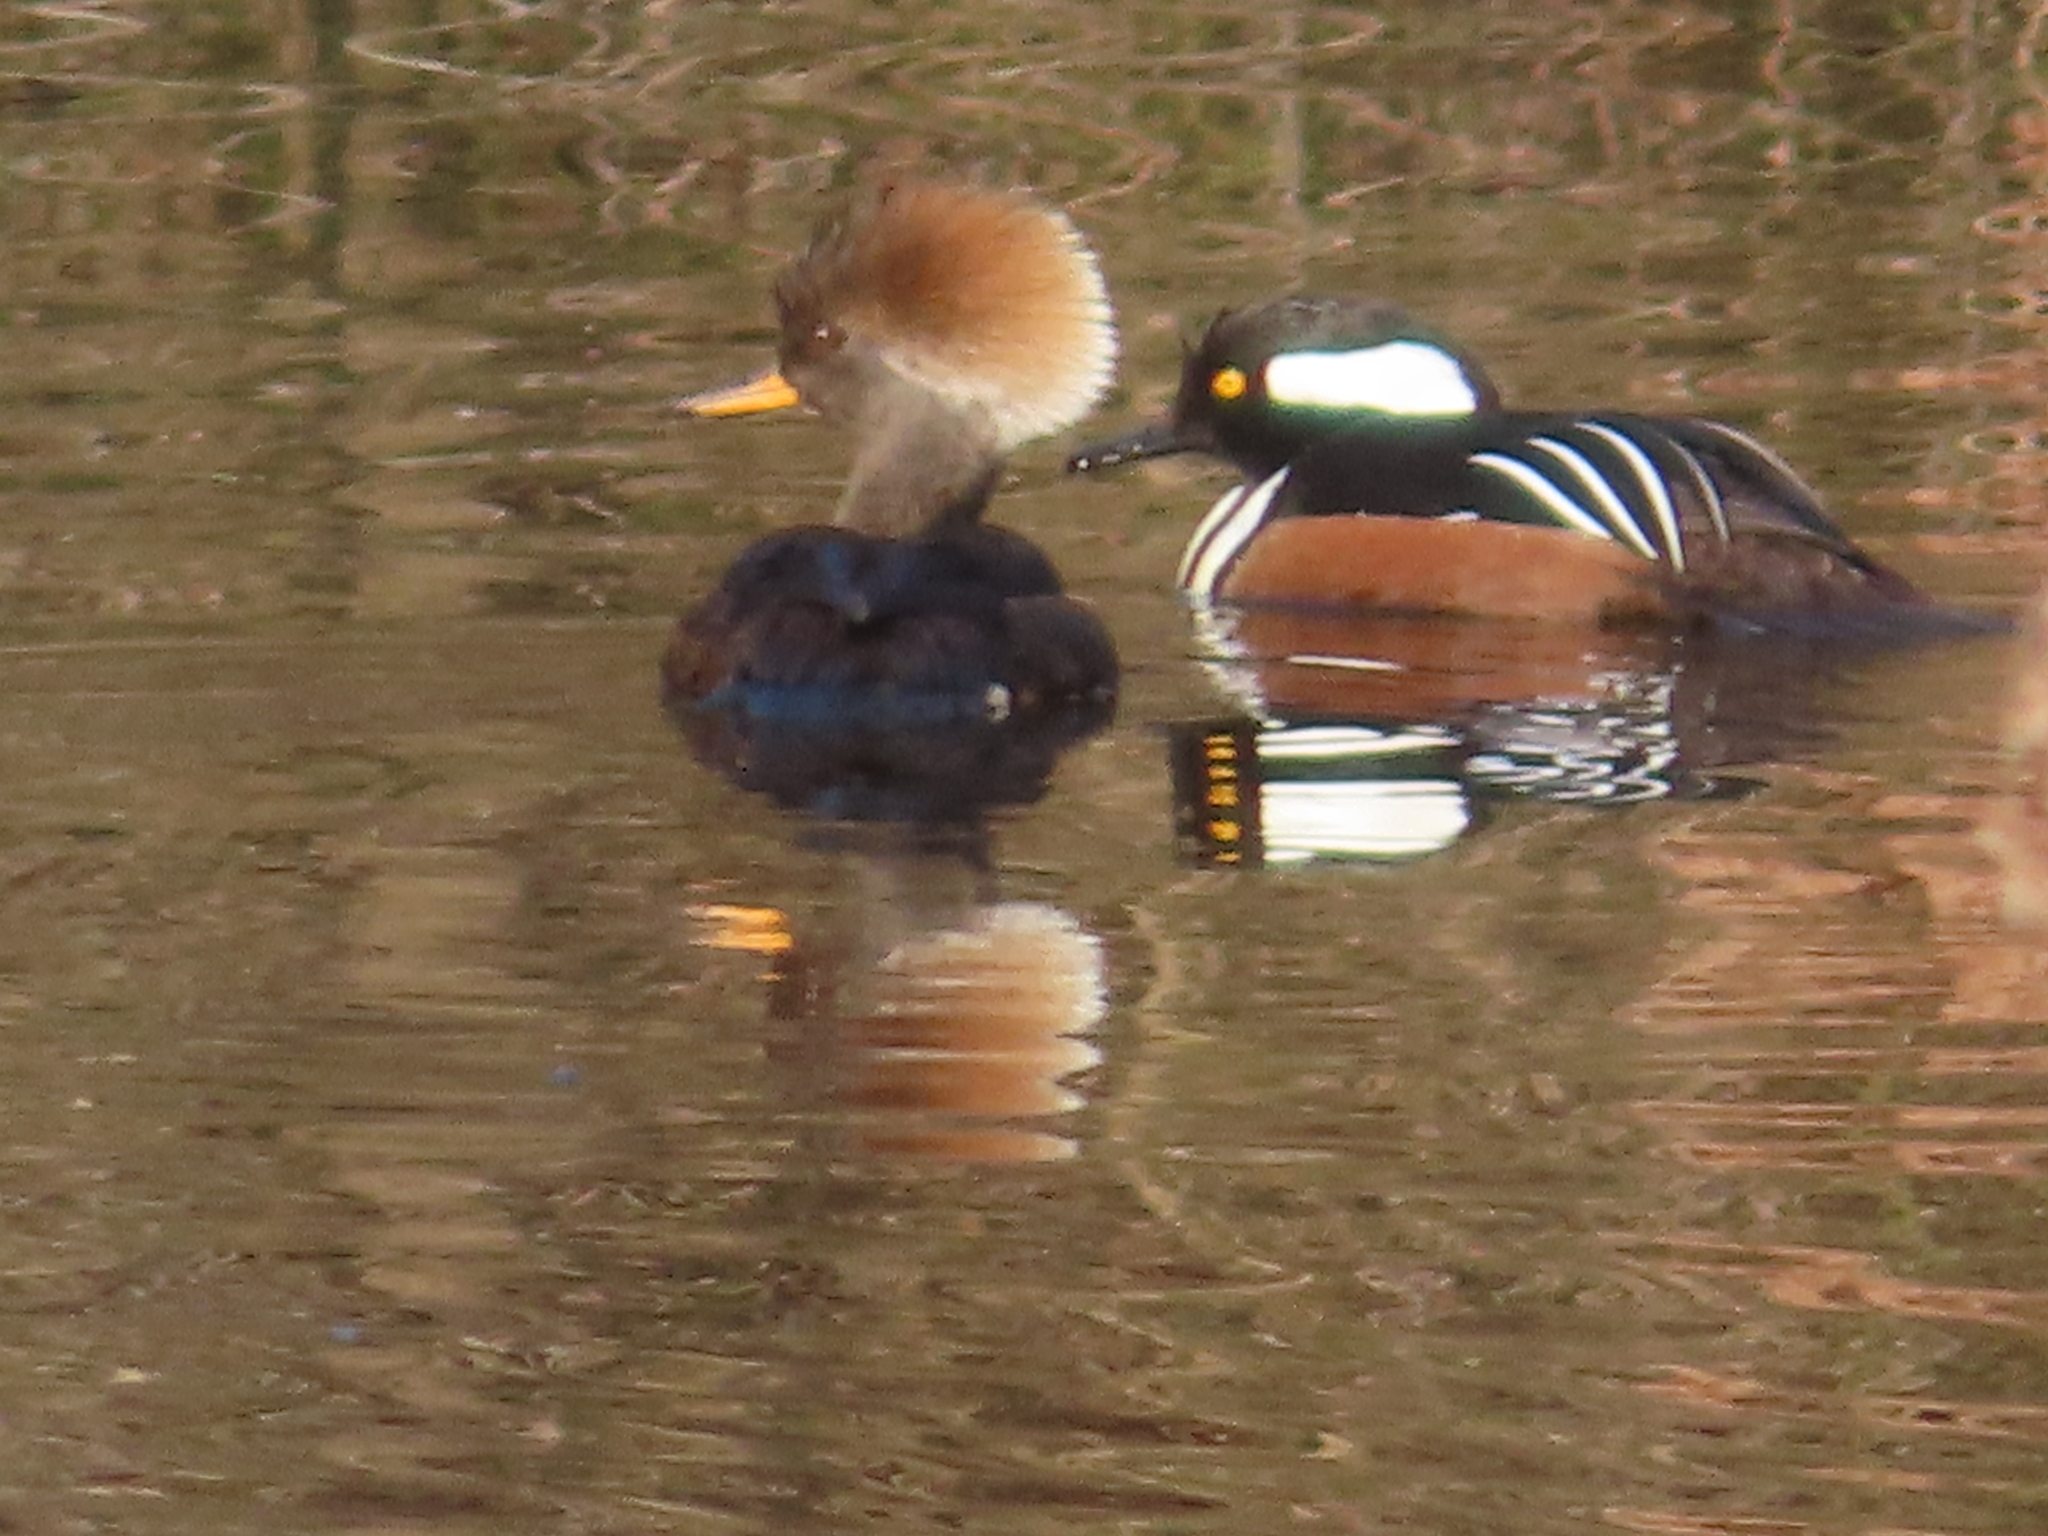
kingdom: Animalia
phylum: Chordata
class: Aves
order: Anseriformes
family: Anatidae
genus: Lophodytes
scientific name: Lophodytes cucullatus
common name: Hooded merganser
